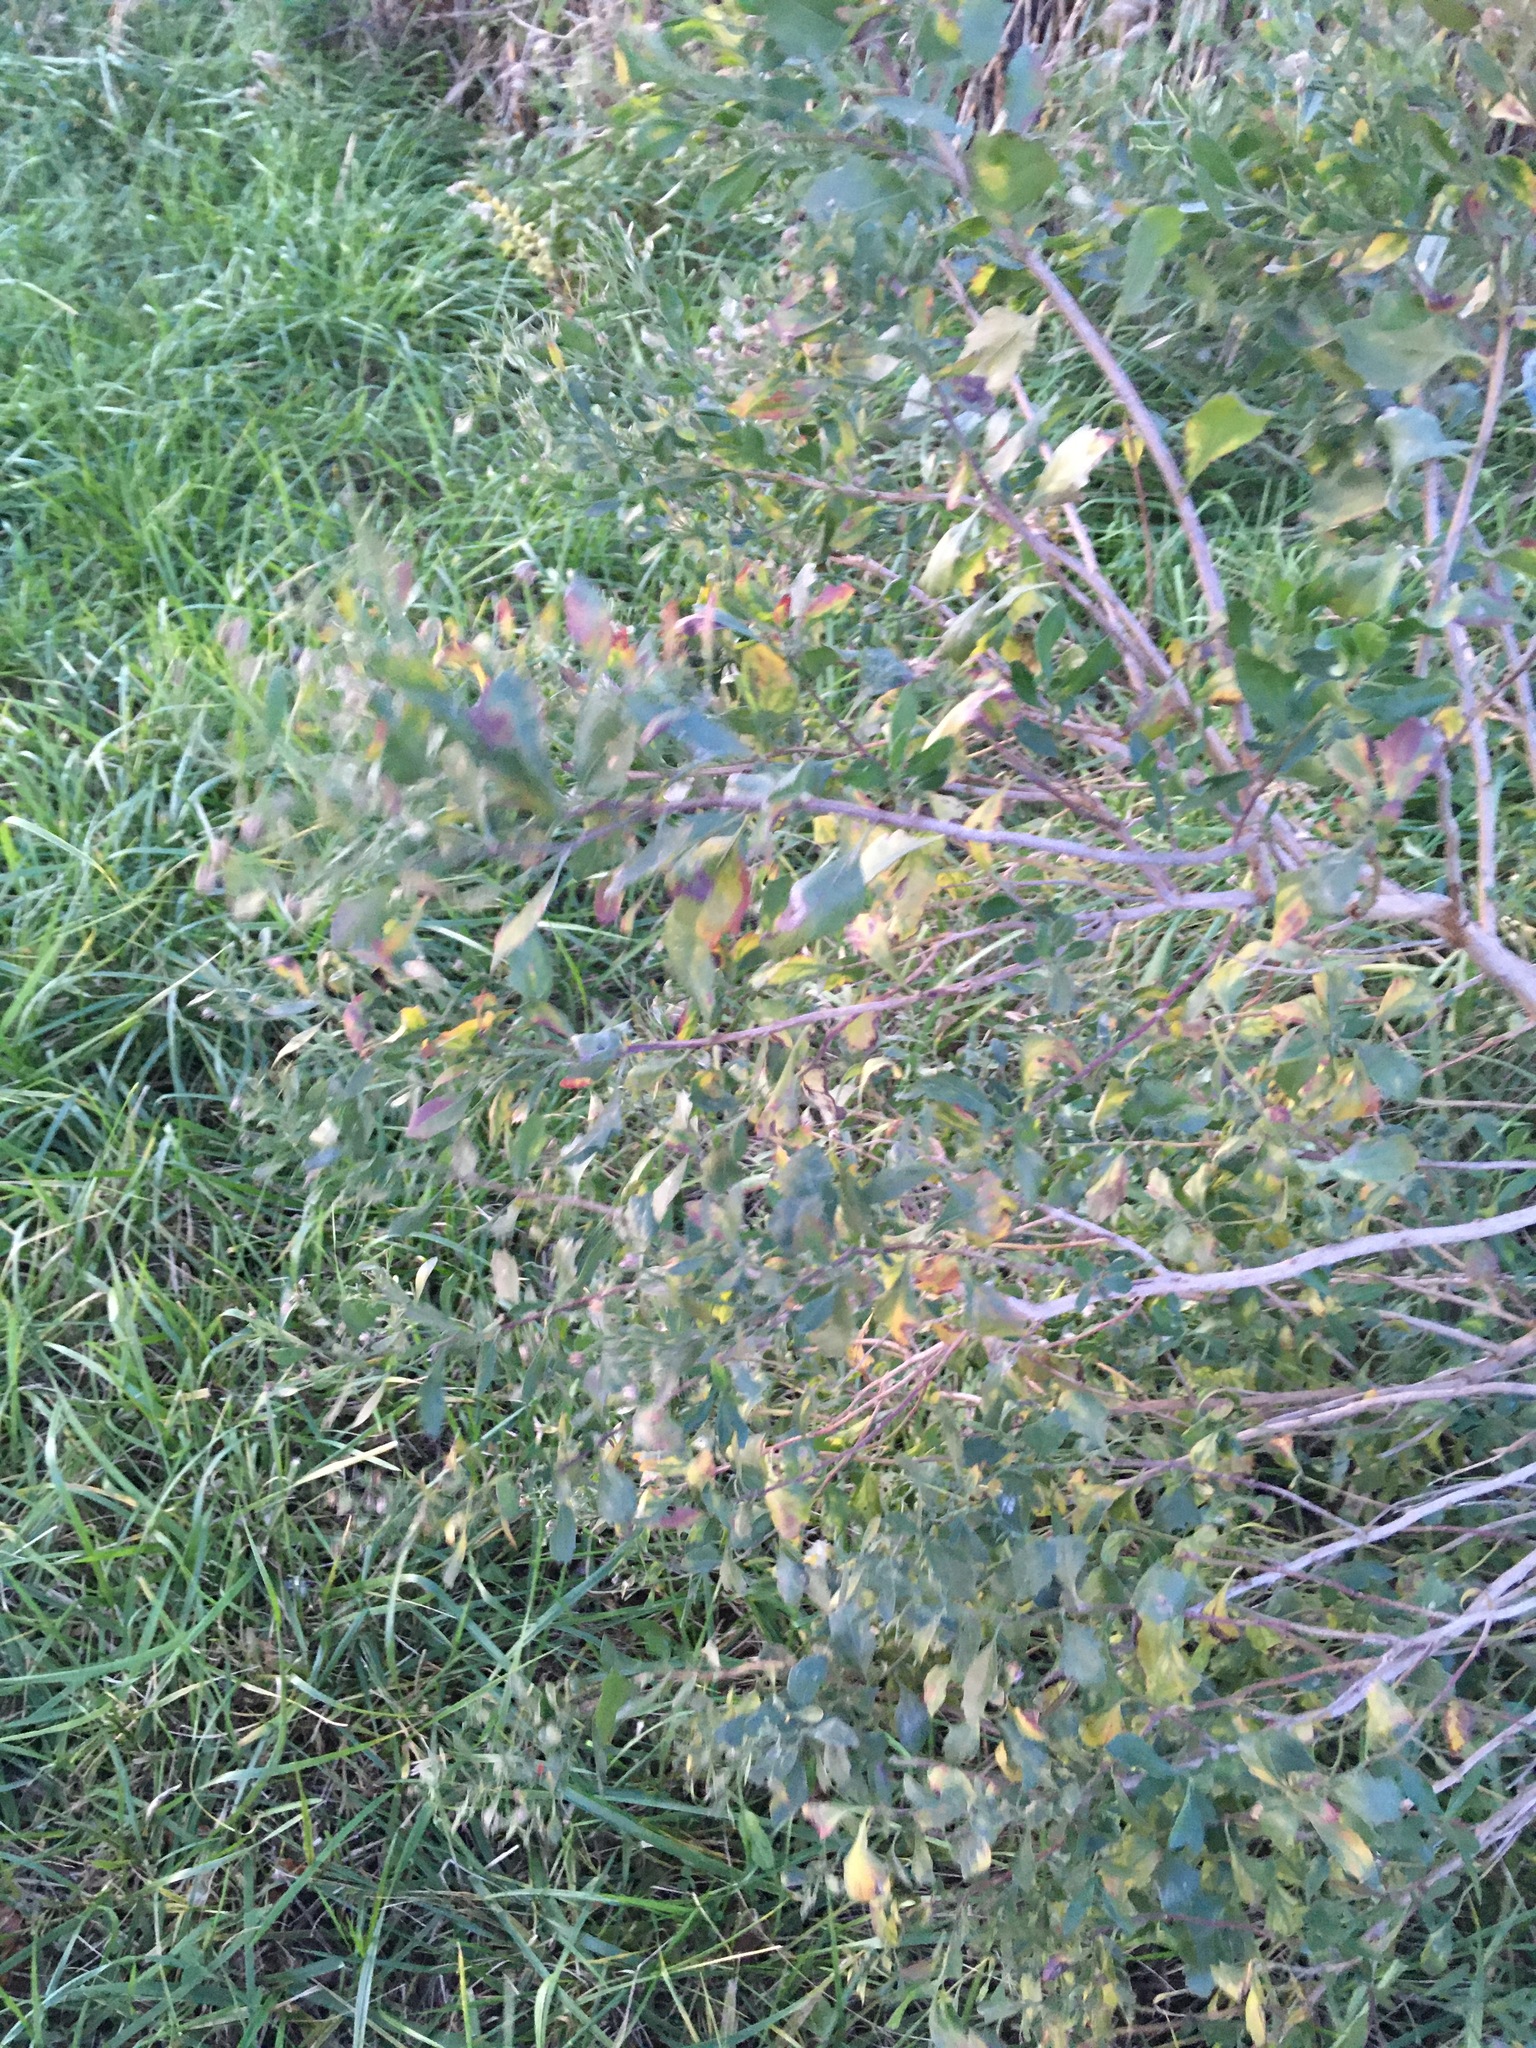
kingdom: Plantae
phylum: Tracheophyta
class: Magnoliopsida
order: Asterales
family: Asteraceae
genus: Baccharis
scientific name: Baccharis halimifolia
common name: Eastern baccharis
